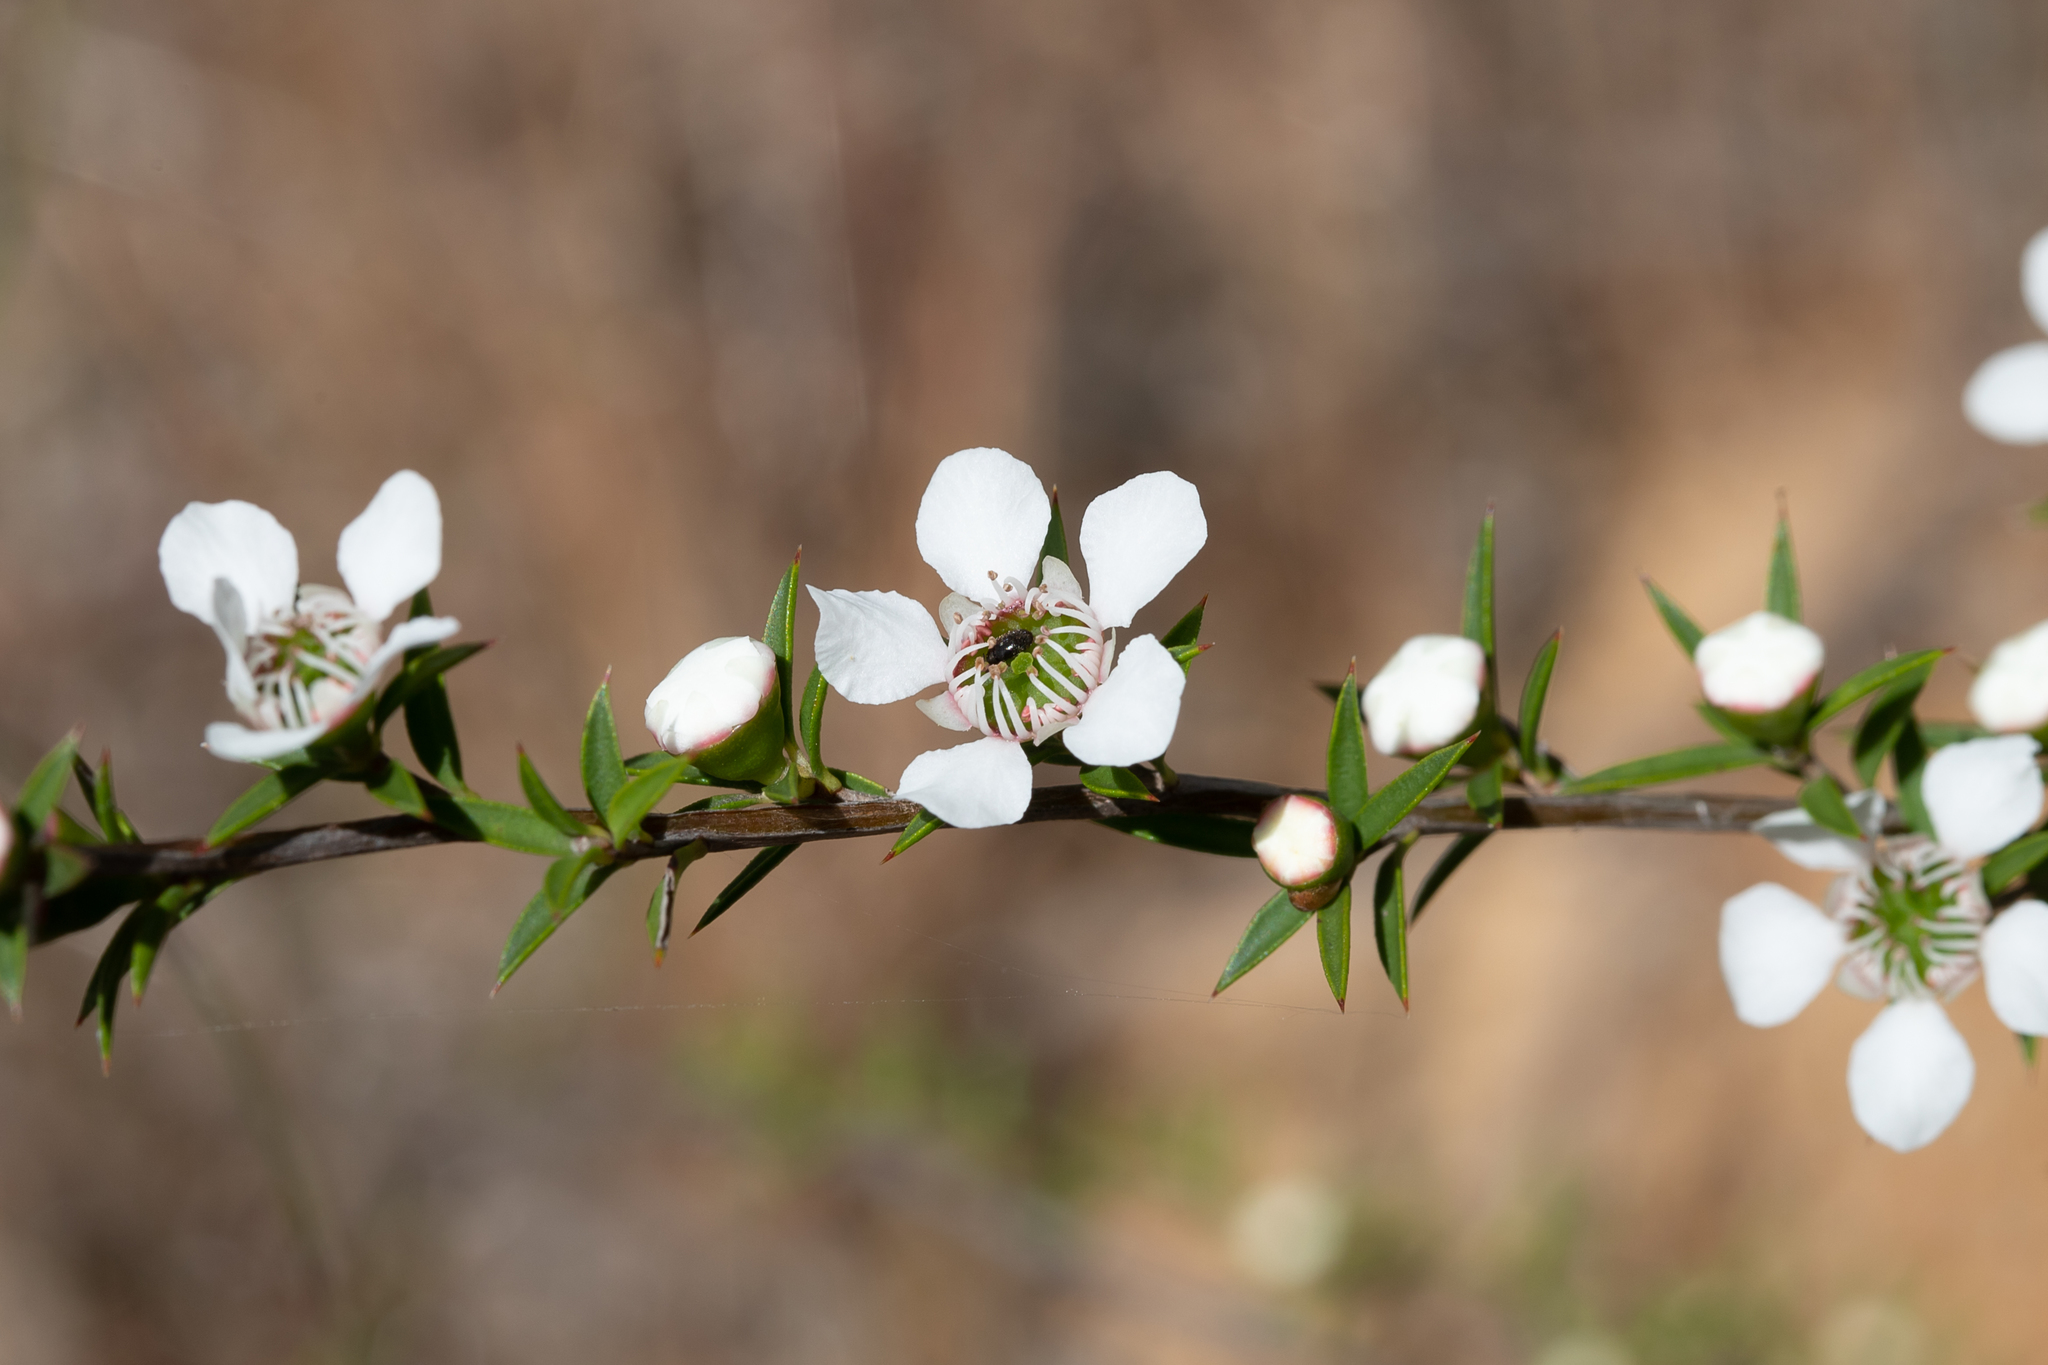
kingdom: Plantae
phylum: Tracheophyta
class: Magnoliopsida
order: Myrtales
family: Myrtaceae
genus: Leptospermum
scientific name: Leptospermum continentale
